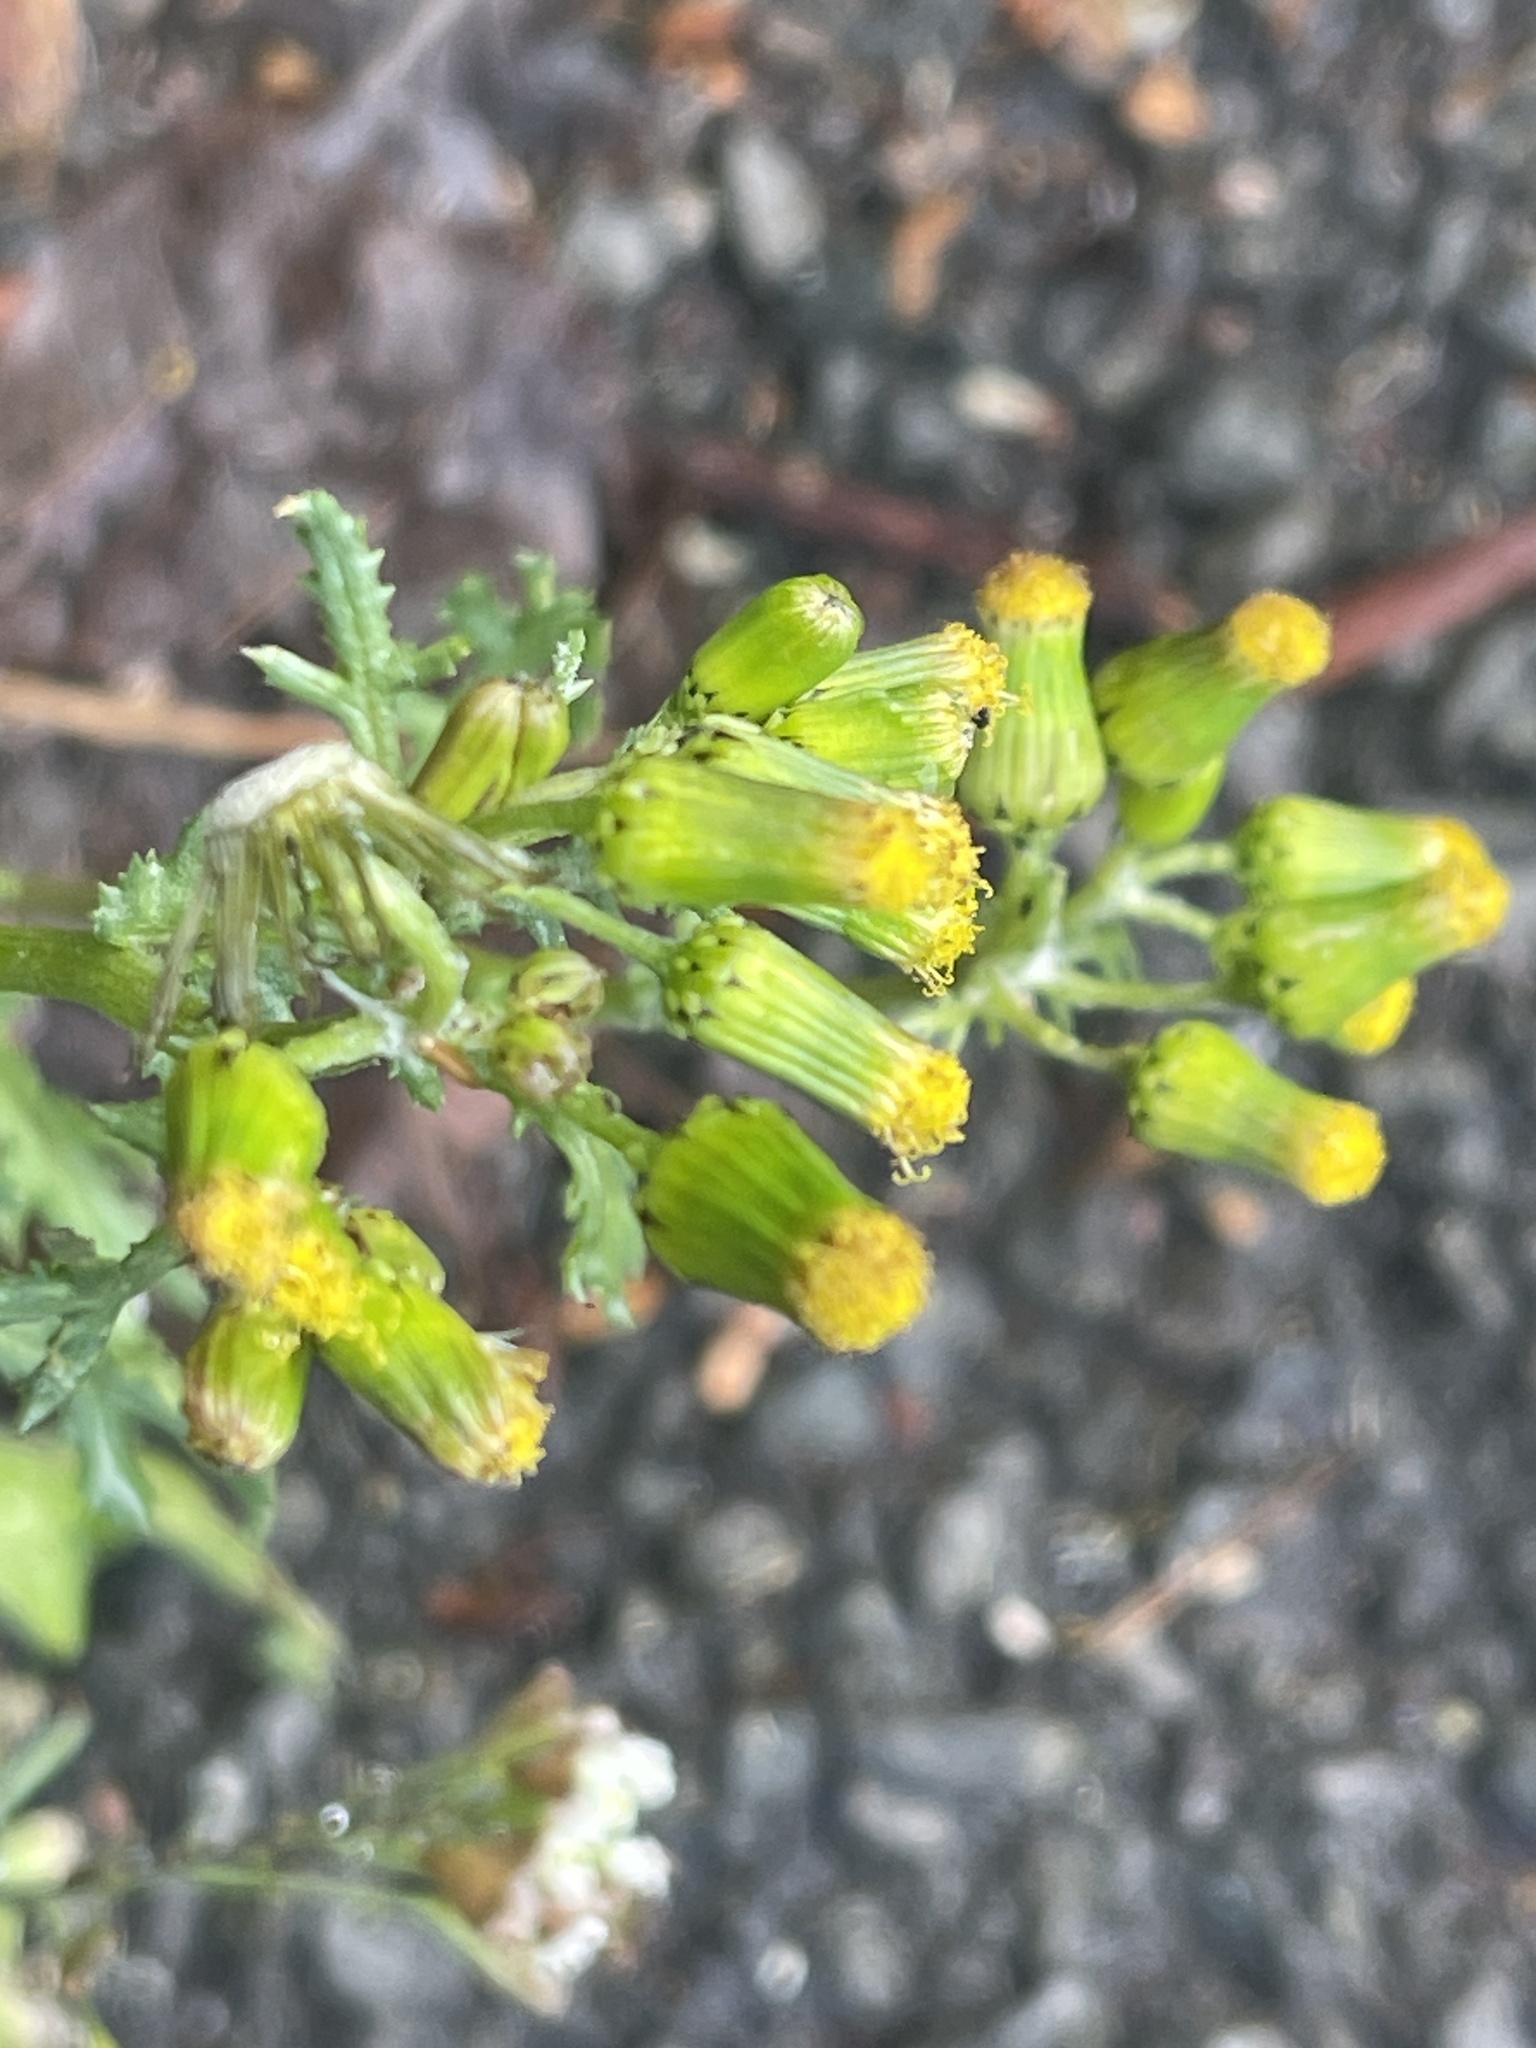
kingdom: Plantae
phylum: Tracheophyta
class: Magnoliopsida
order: Asterales
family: Asteraceae
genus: Senecio
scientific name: Senecio vulgaris
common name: Old-man-in-the-spring
